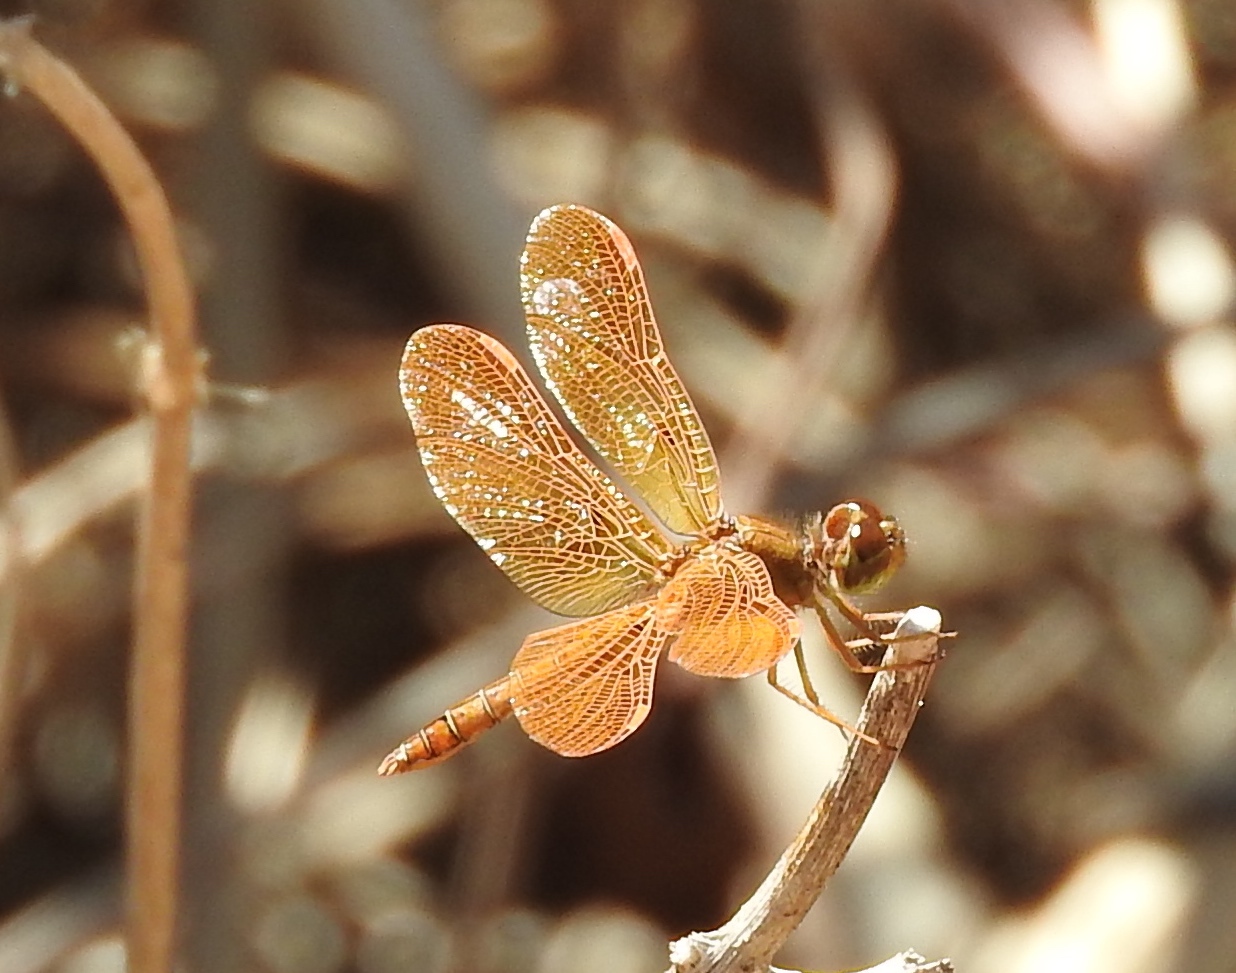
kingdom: Animalia
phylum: Arthropoda
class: Insecta
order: Odonata
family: Libellulidae
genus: Perithemis
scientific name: Perithemis intensa
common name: Mexican amberwing
